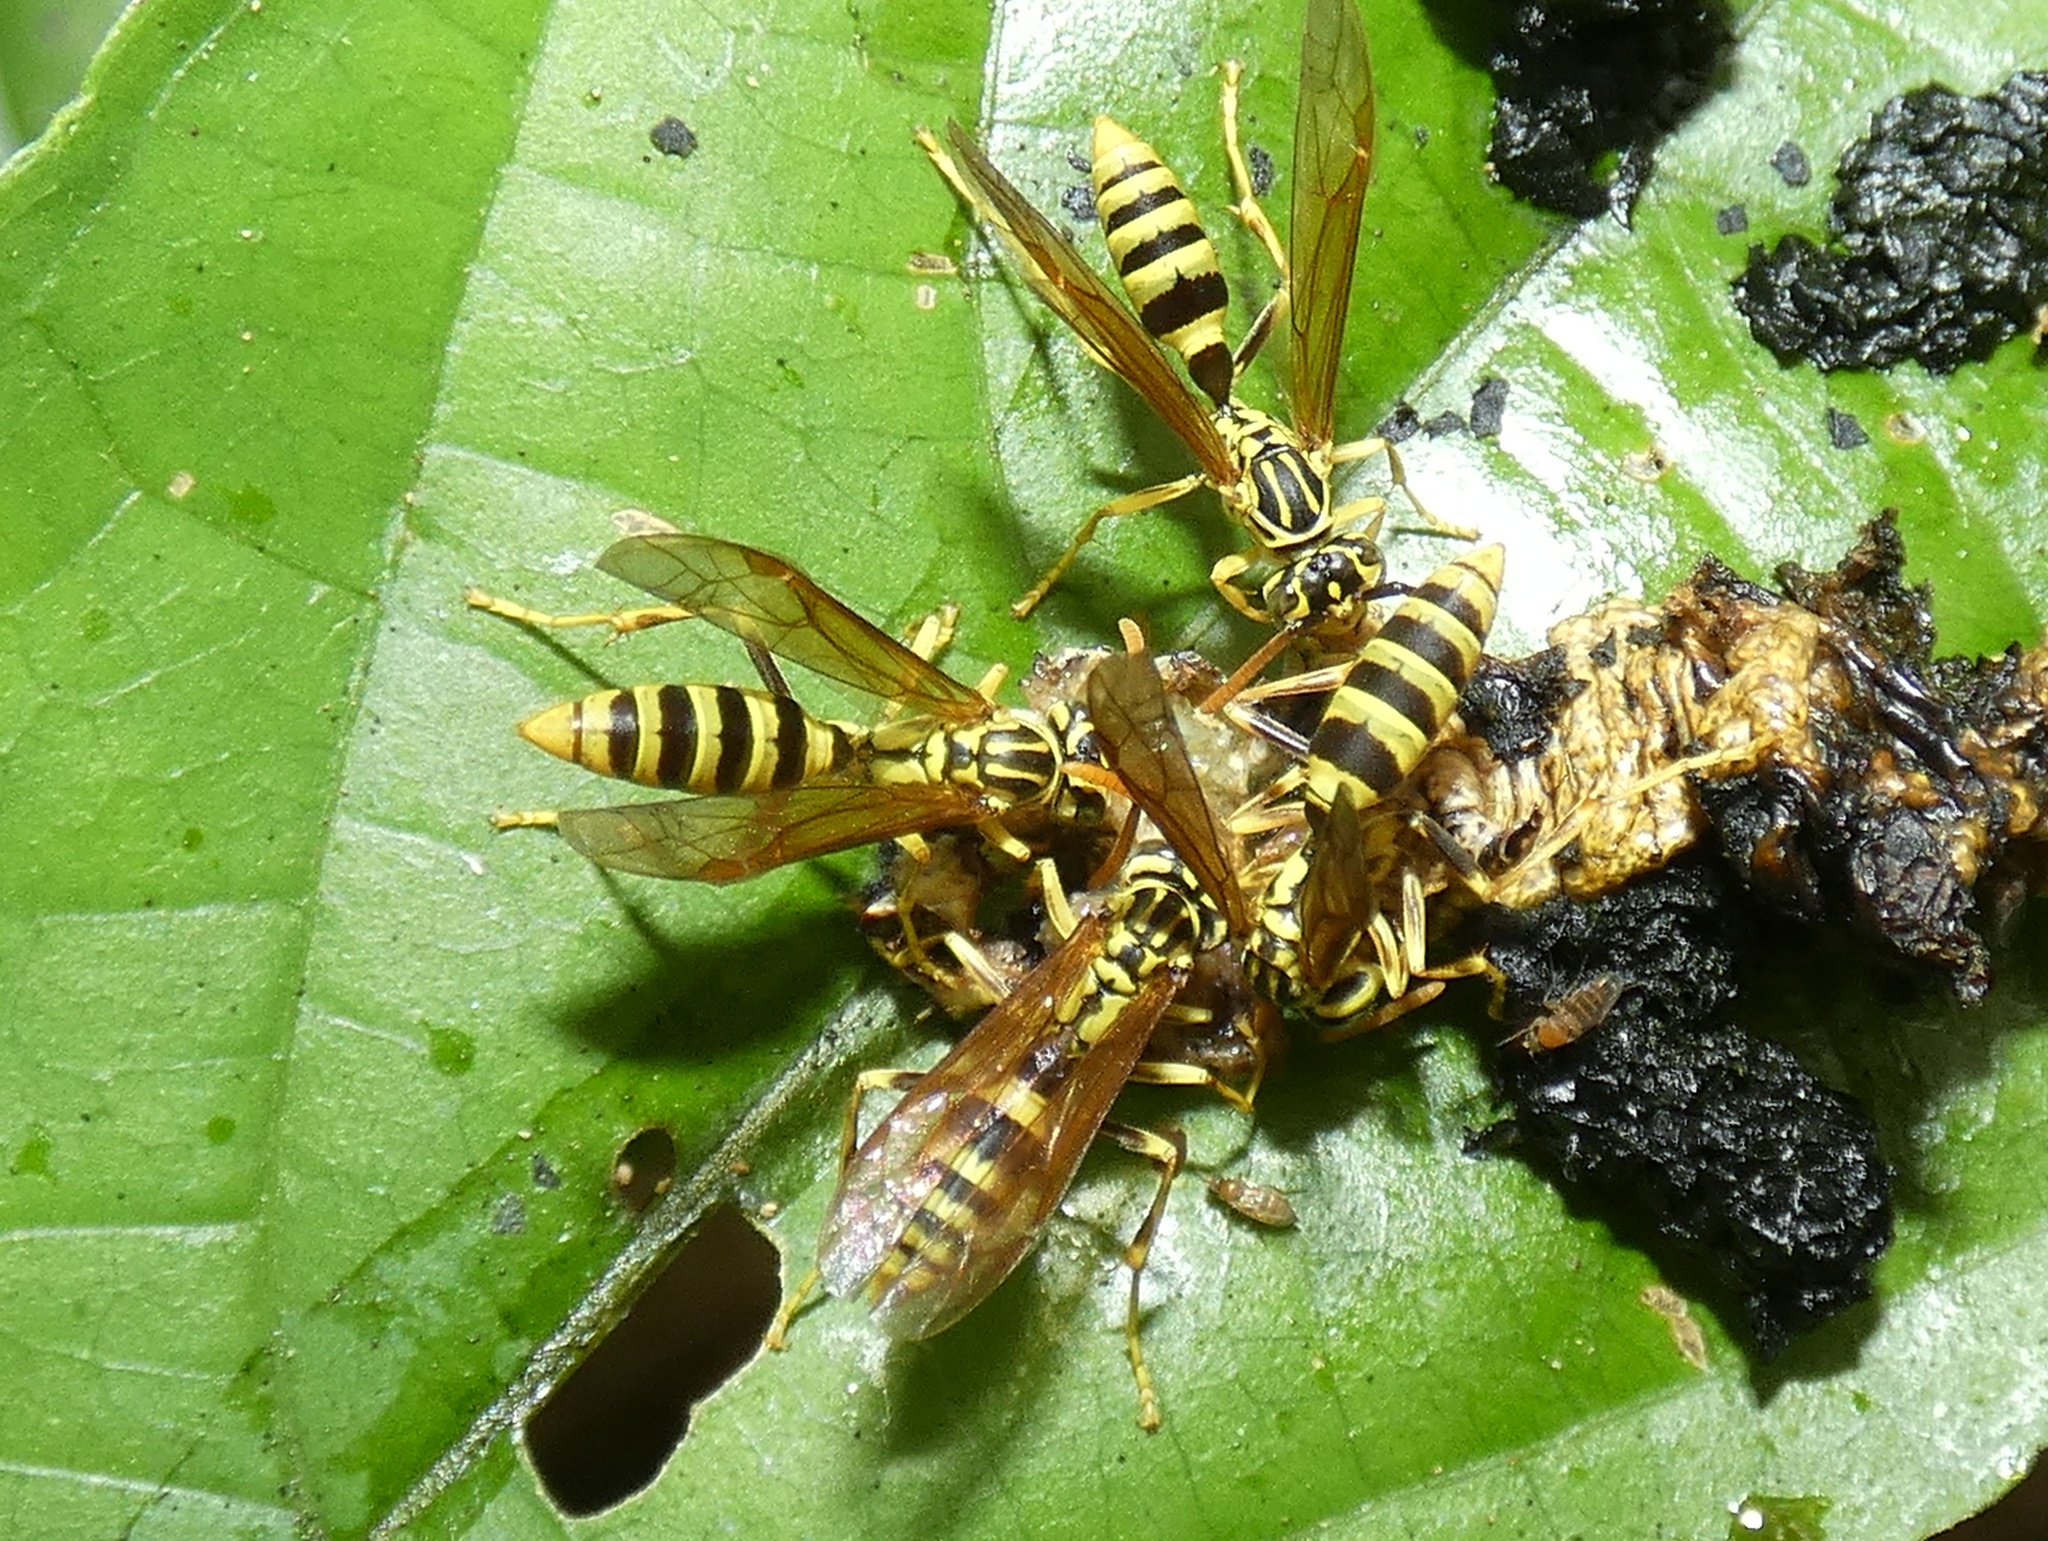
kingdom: Animalia
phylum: Arthropoda
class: Insecta
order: Hymenoptera
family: Vespidae
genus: Agelaia
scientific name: Agelaia areata
